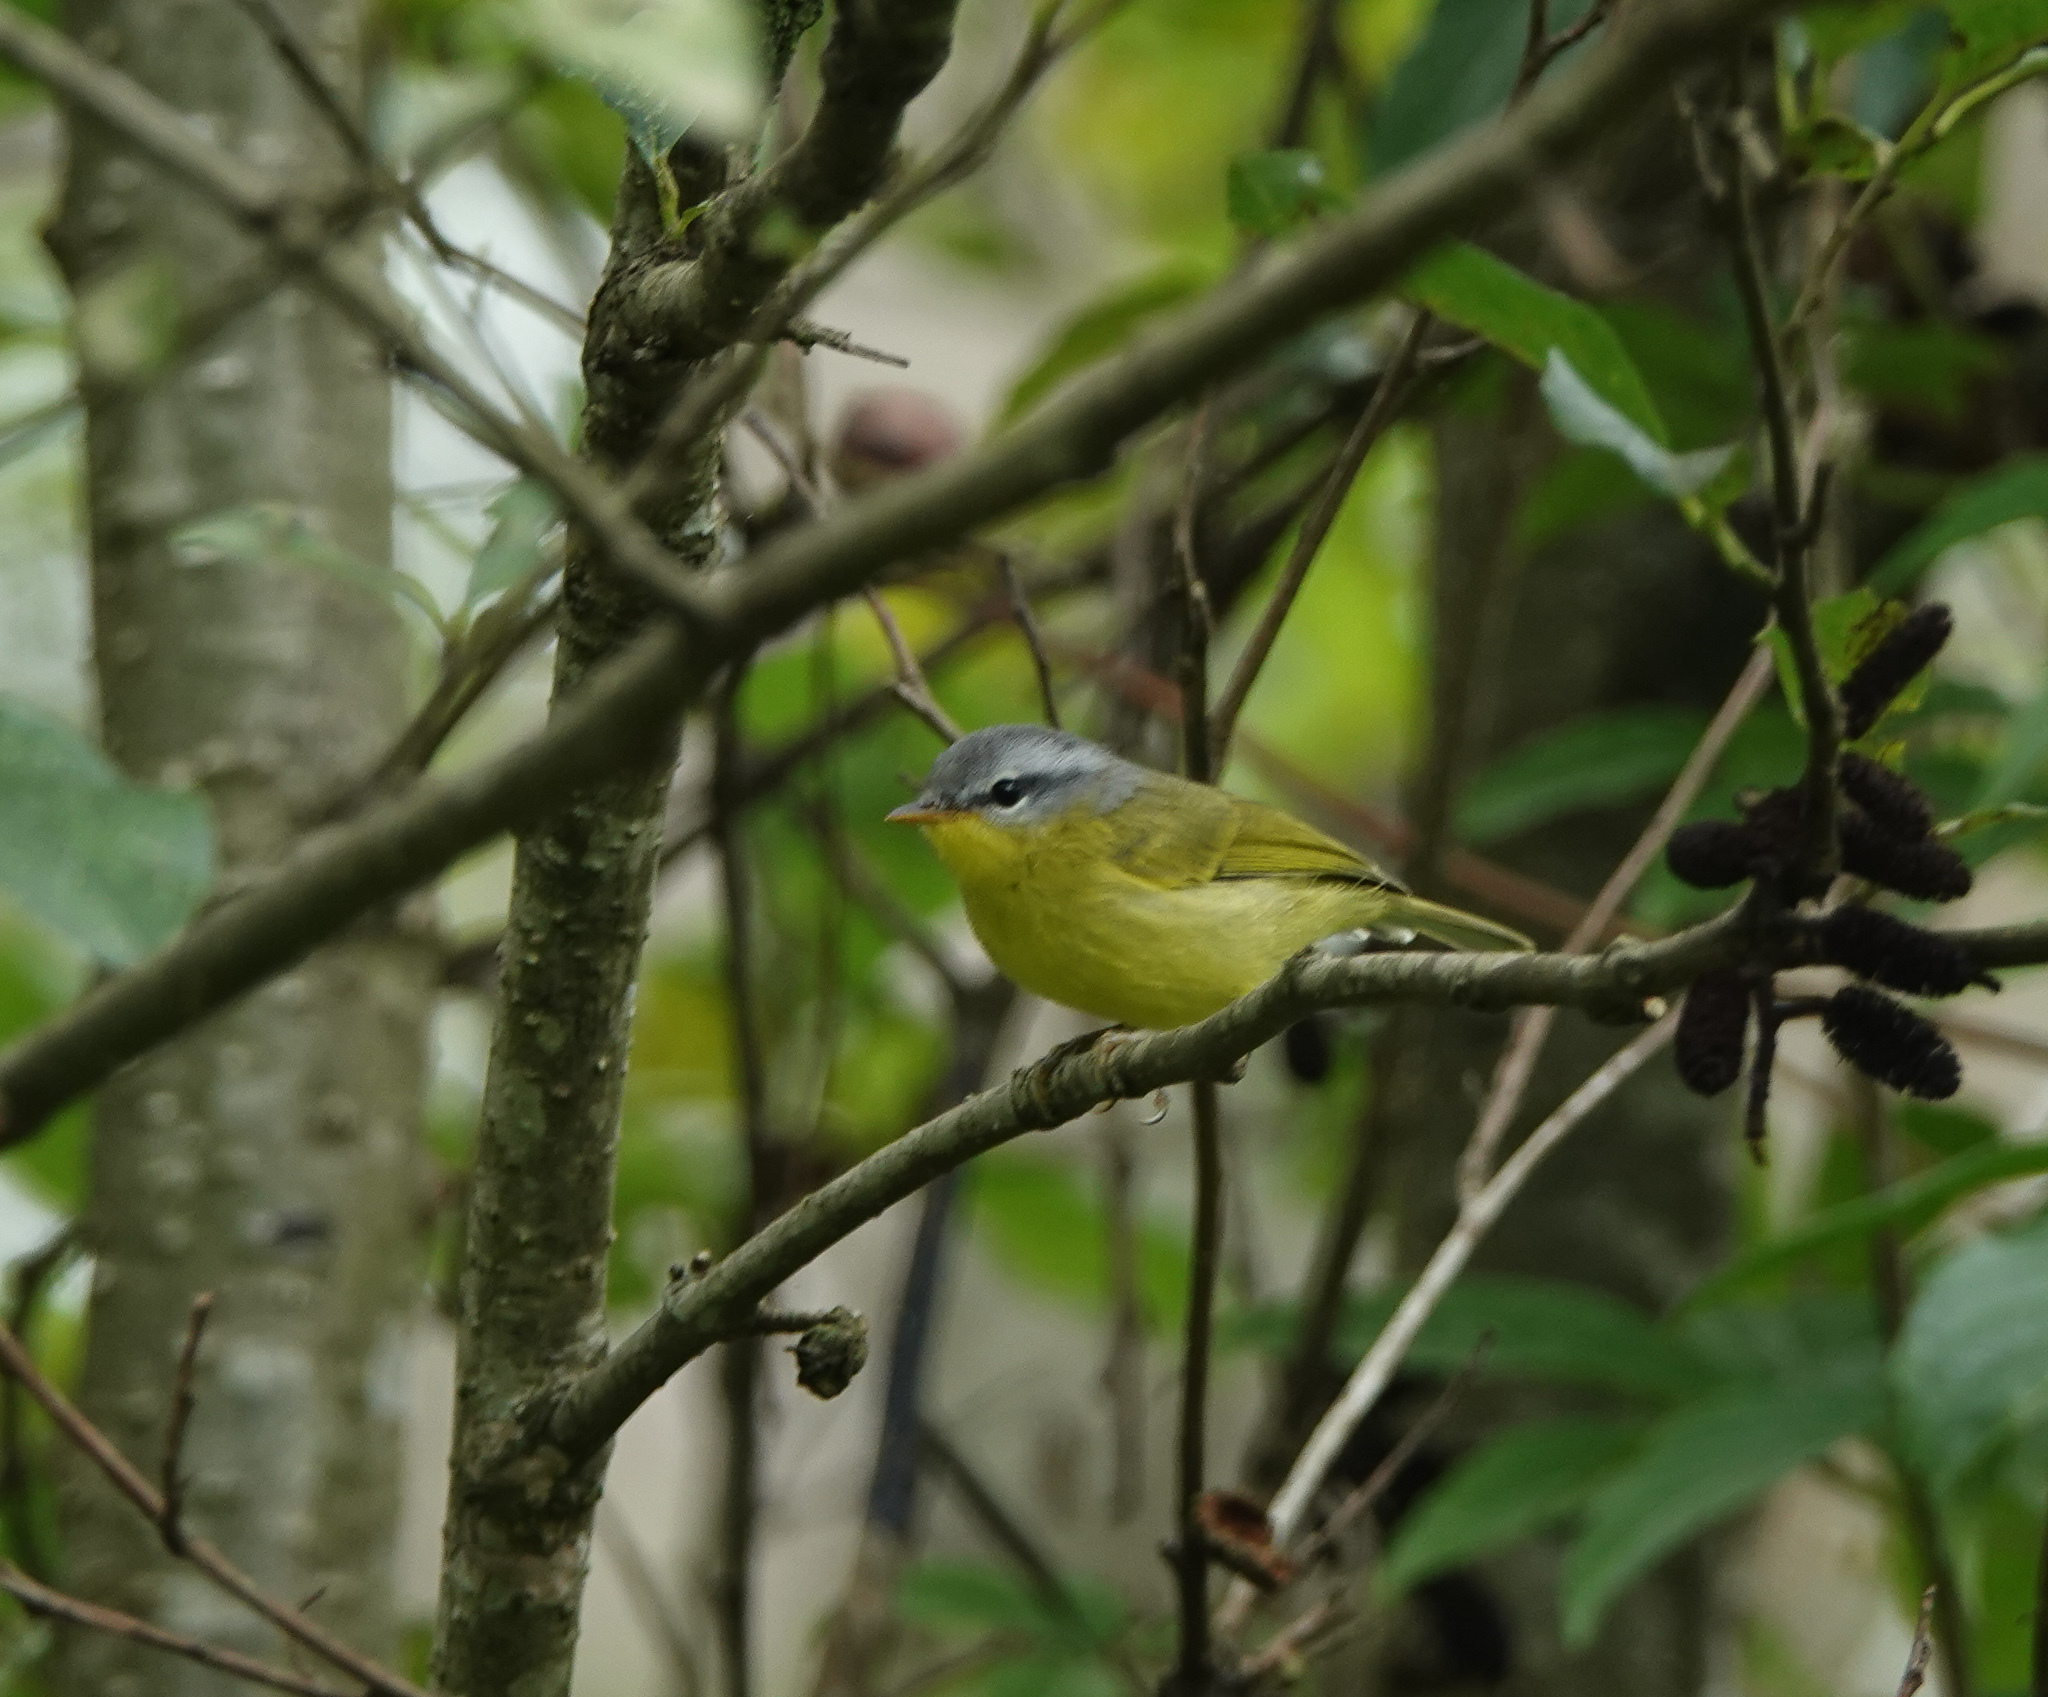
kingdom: Animalia
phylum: Chordata
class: Aves
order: Passeriformes
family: Phylloscopidae
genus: Phylloscopus
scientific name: Phylloscopus xanthoschistos
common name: Grey-hooded warbler
